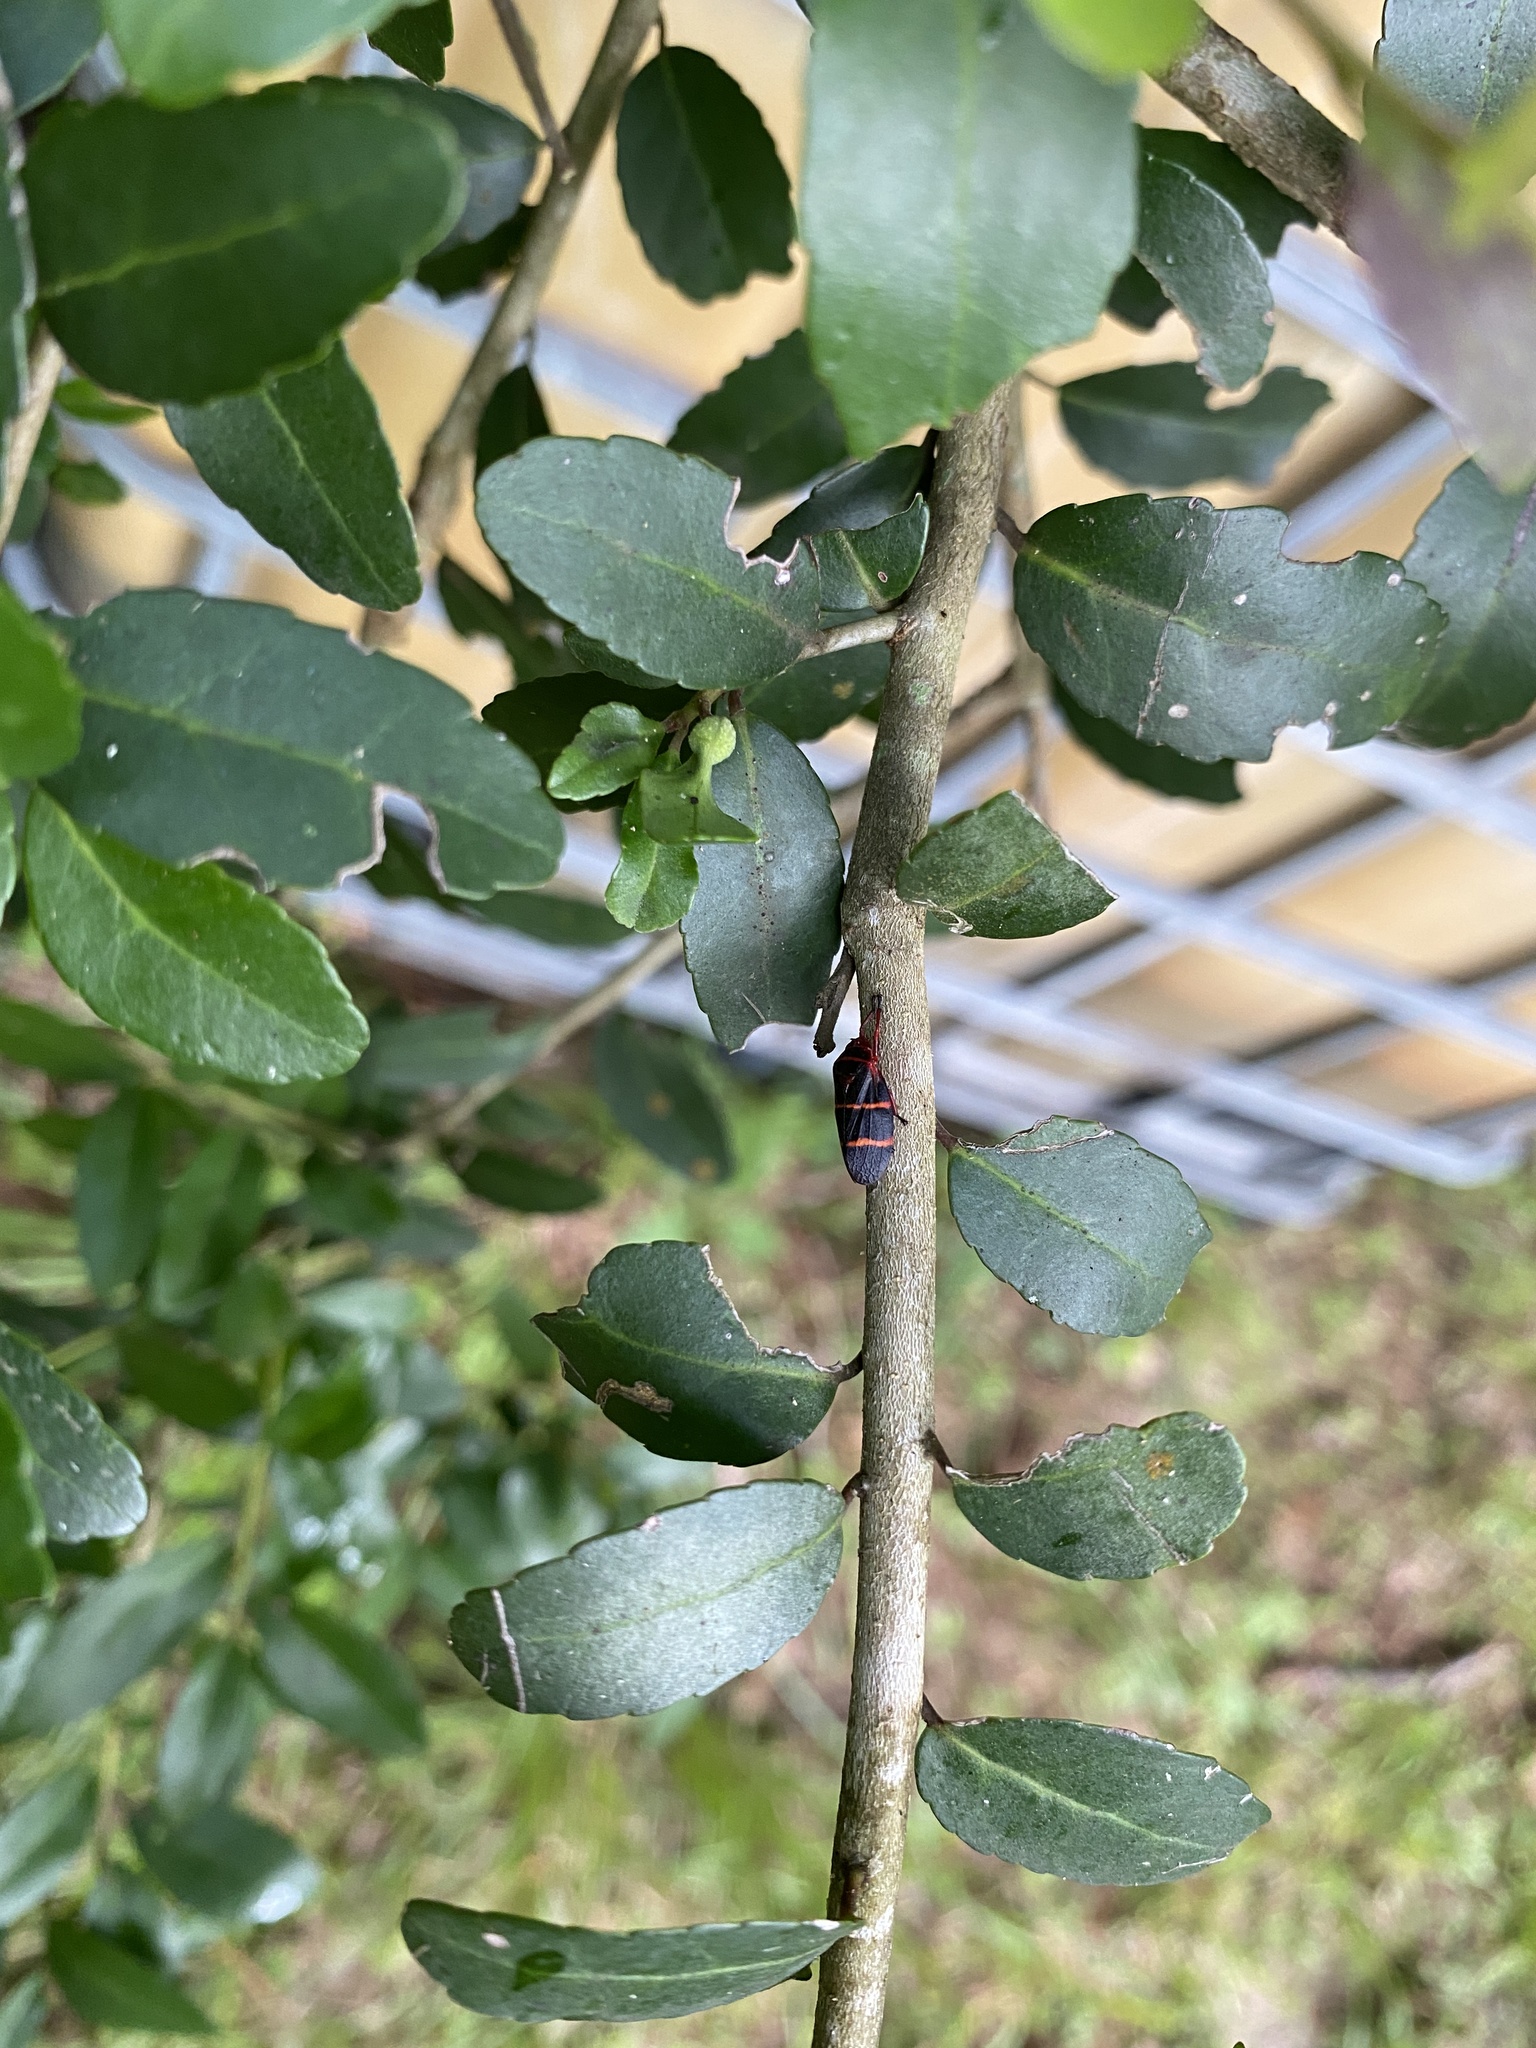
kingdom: Animalia
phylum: Arthropoda
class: Insecta
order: Hemiptera
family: Cercopidae
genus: Prosapia
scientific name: Prosapia bicincta
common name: Twolined spittlebug
